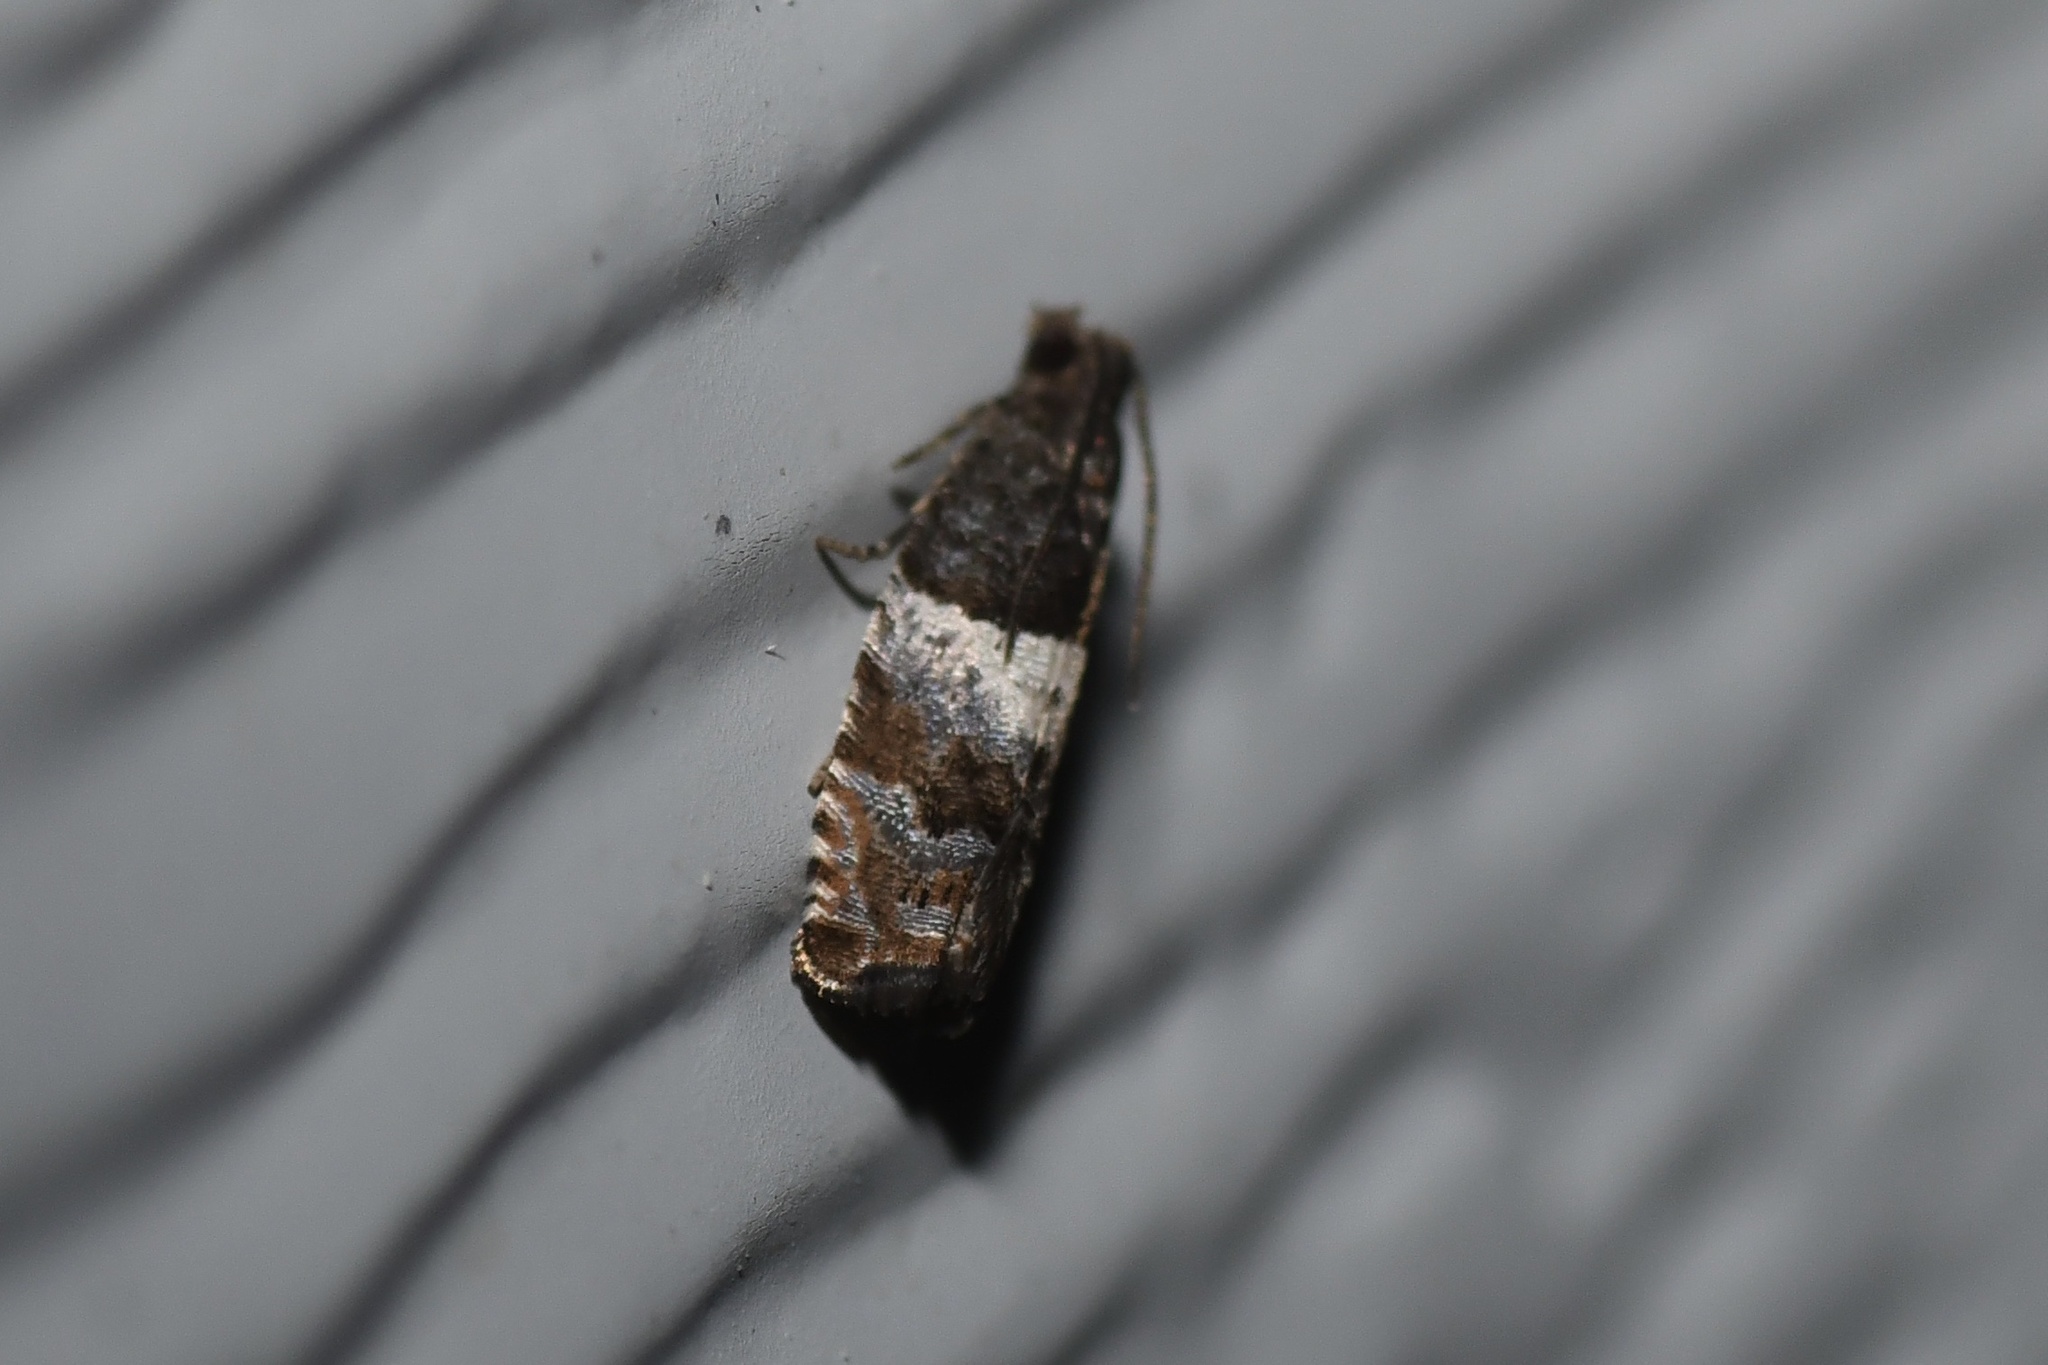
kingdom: Animalia
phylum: Arthropoda
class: Insecta
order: Lepidoptera
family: Tortricidae
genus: Gypsonoma
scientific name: Gypsonoma substitutionis
